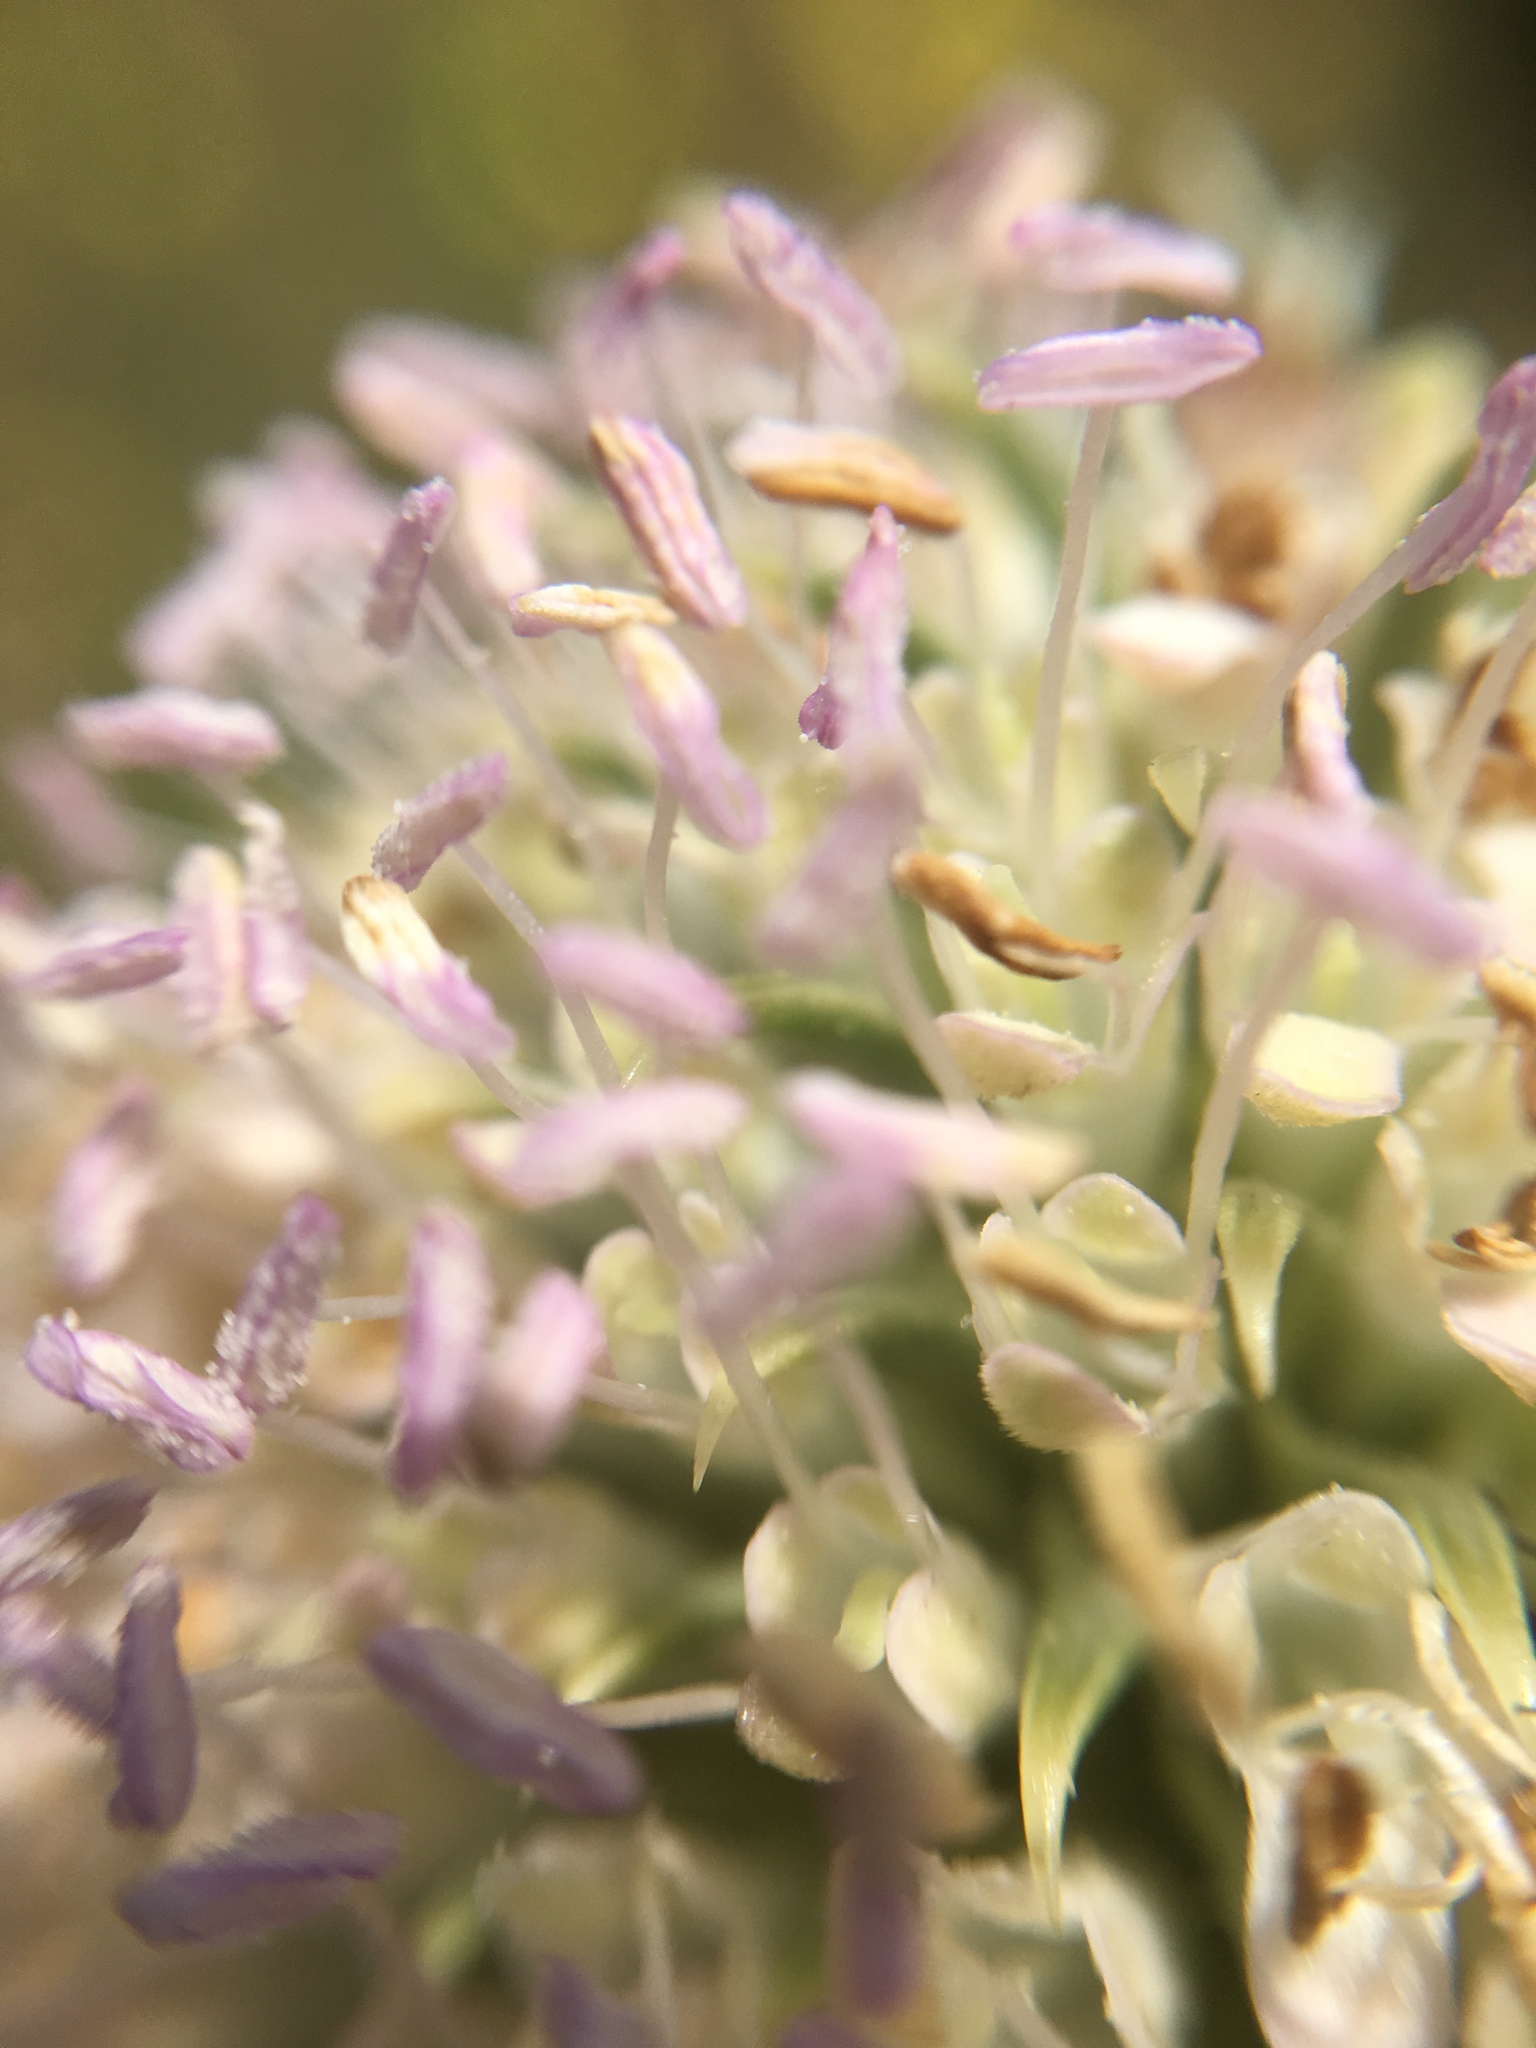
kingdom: Plantae
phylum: Tracheophyta
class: Magnoliopsida
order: Dipsacales
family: Caprifoliaceae
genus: Dipsacus
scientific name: Dipsacus sativus
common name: Fuller's teasel
